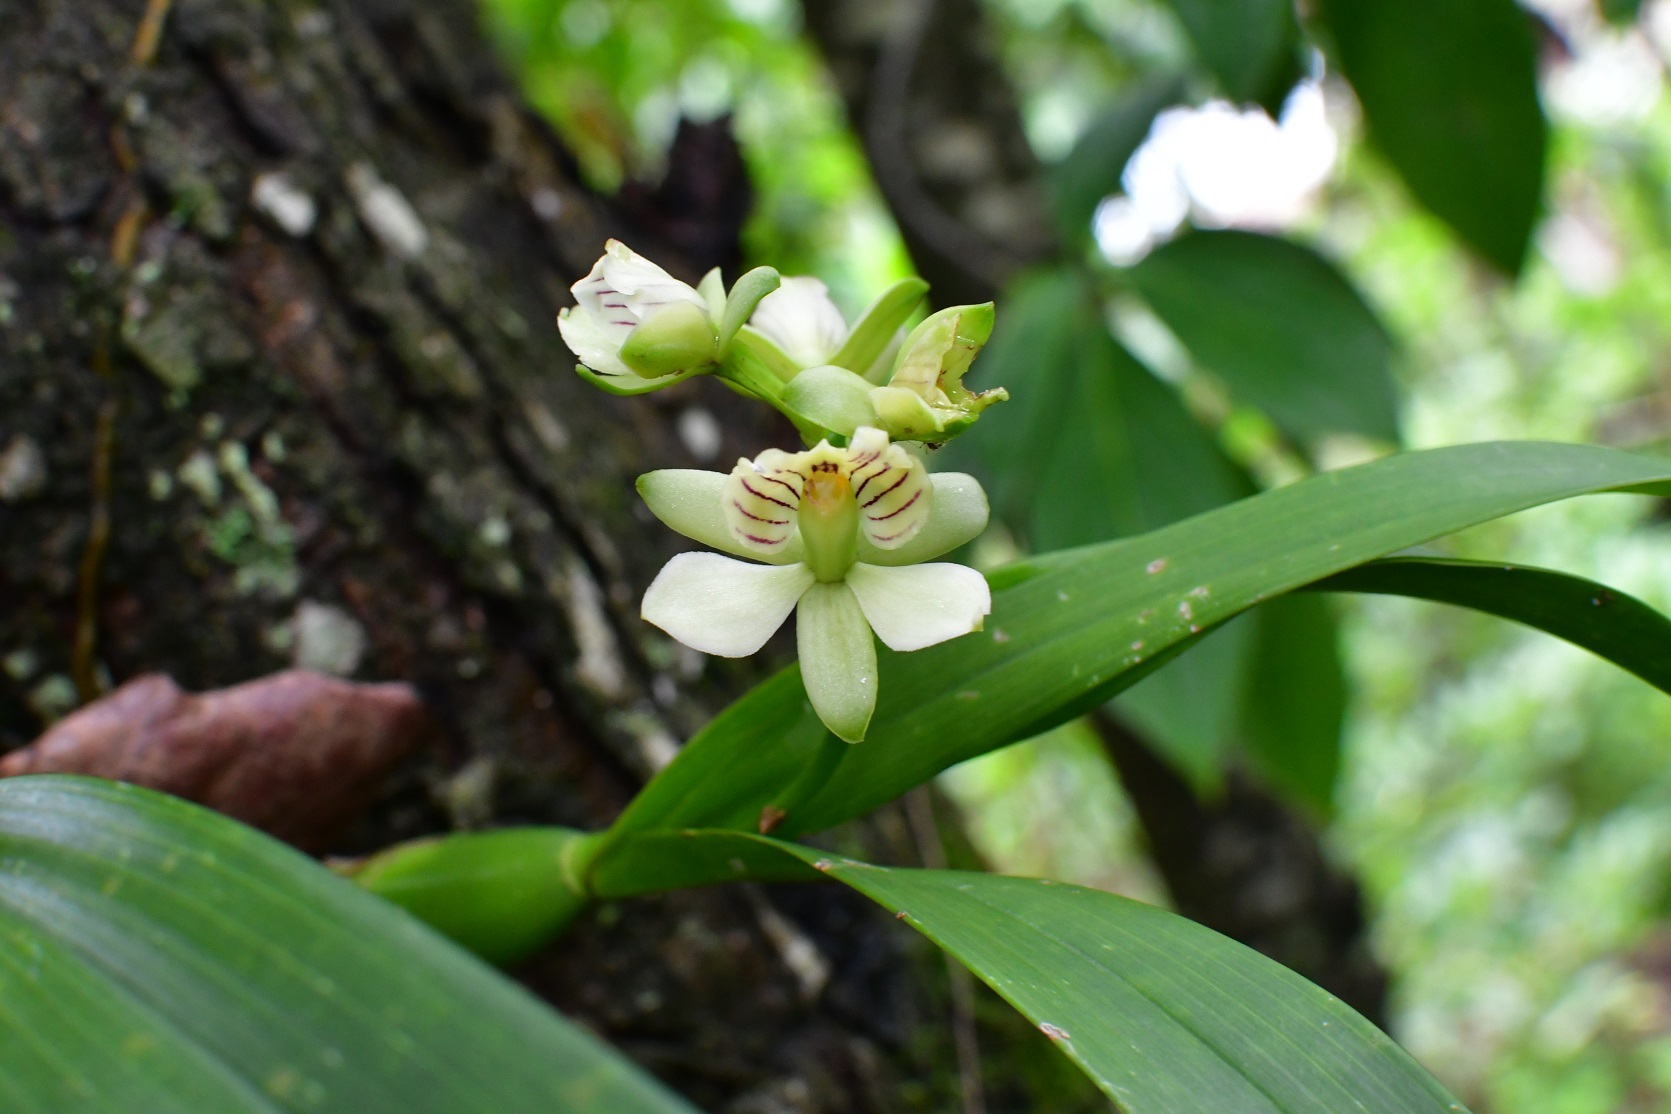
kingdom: Plantae
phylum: Tracheophyta
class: Liliopsida
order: Asparagales
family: Orchidaceae
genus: Prosthechea
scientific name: Prosthechea radiata
